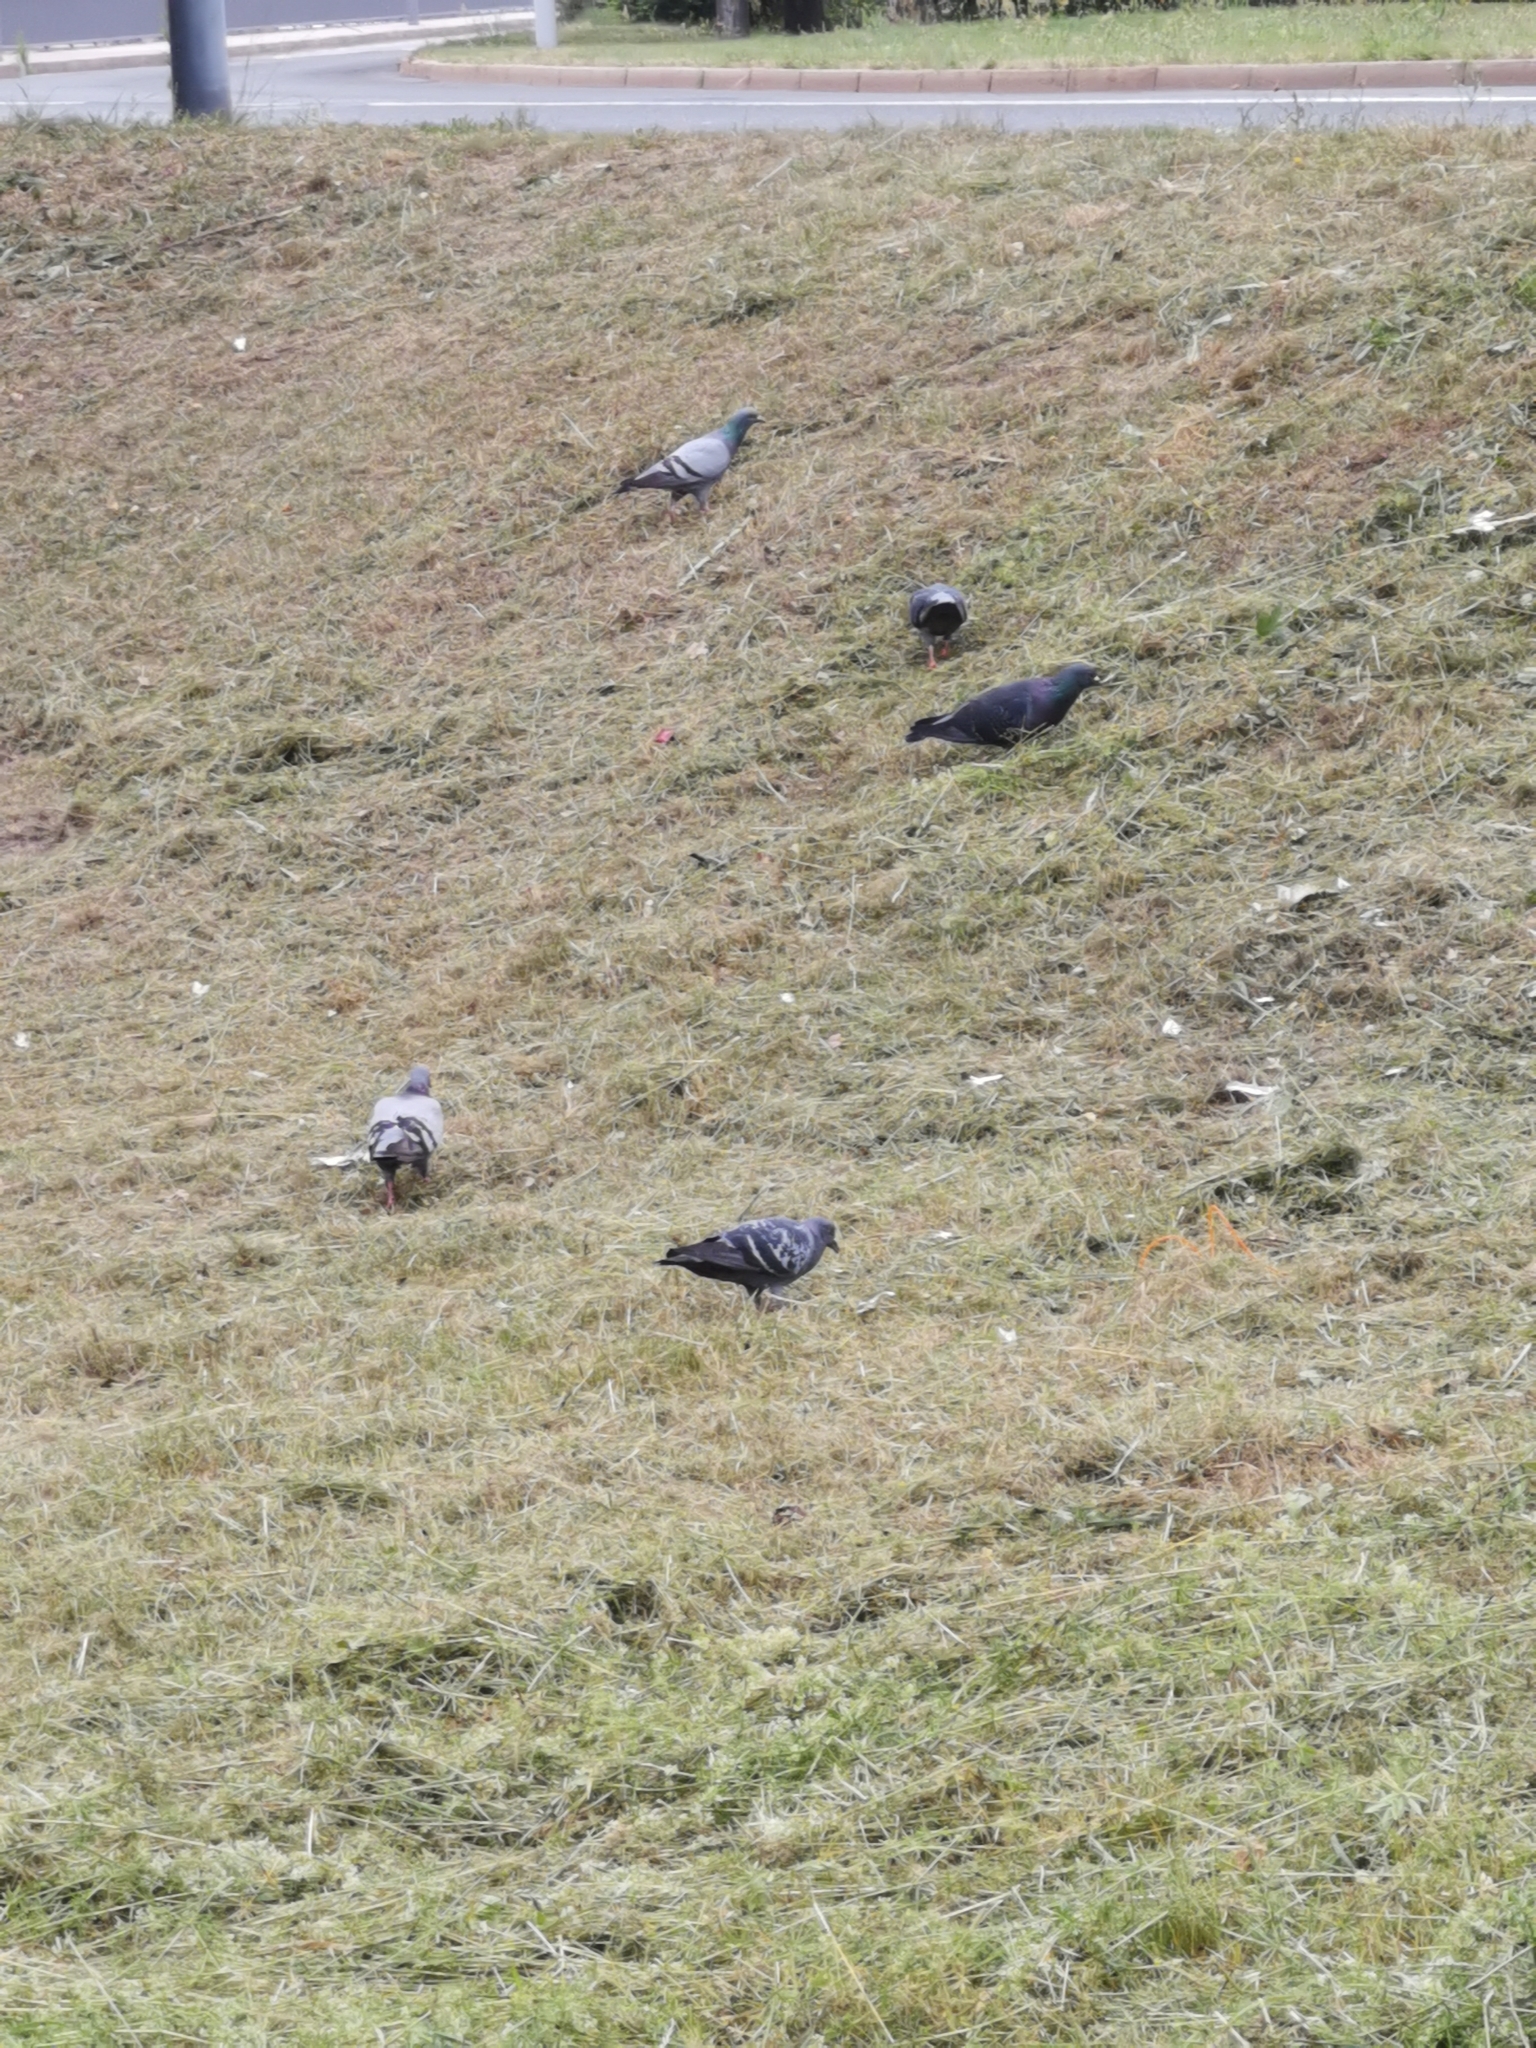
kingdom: Animalia
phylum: Chordata
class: Aves
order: Columbiformes
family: Columbidae
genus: Columba
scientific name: Columba livia
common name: Rock pigeon
